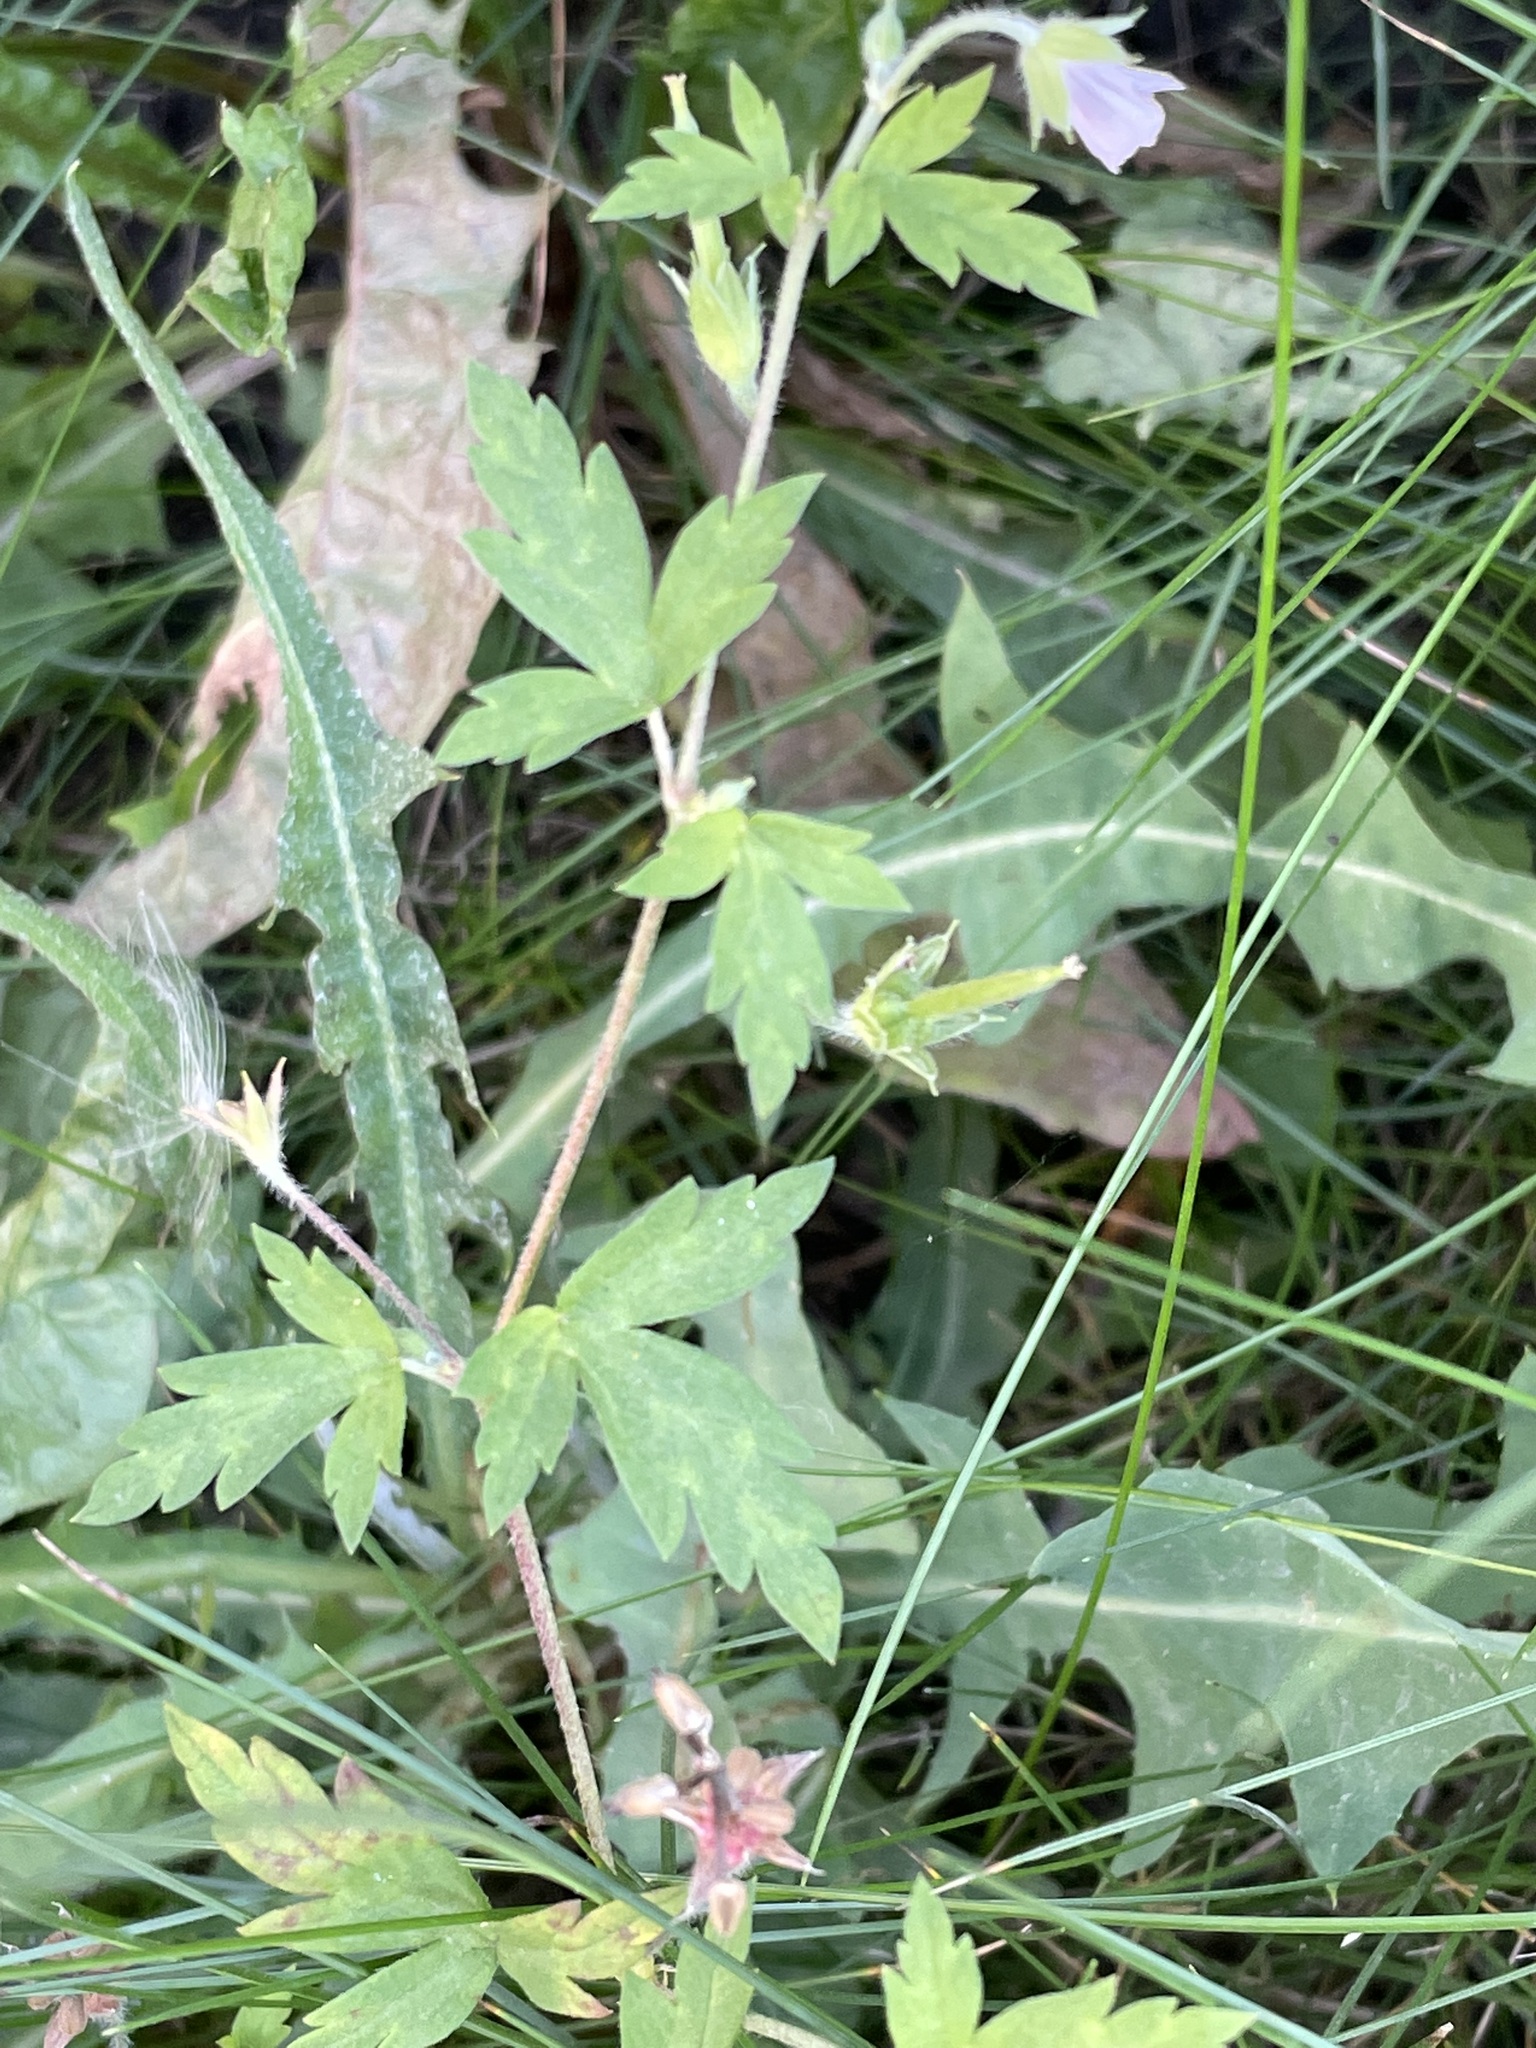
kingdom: Plantae
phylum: Tracheophyta
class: Magnoliopsida
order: Geraniales
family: Geraniaceae
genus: Geranium
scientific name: Geranium sibiricum
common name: Siberian crane's-bill
